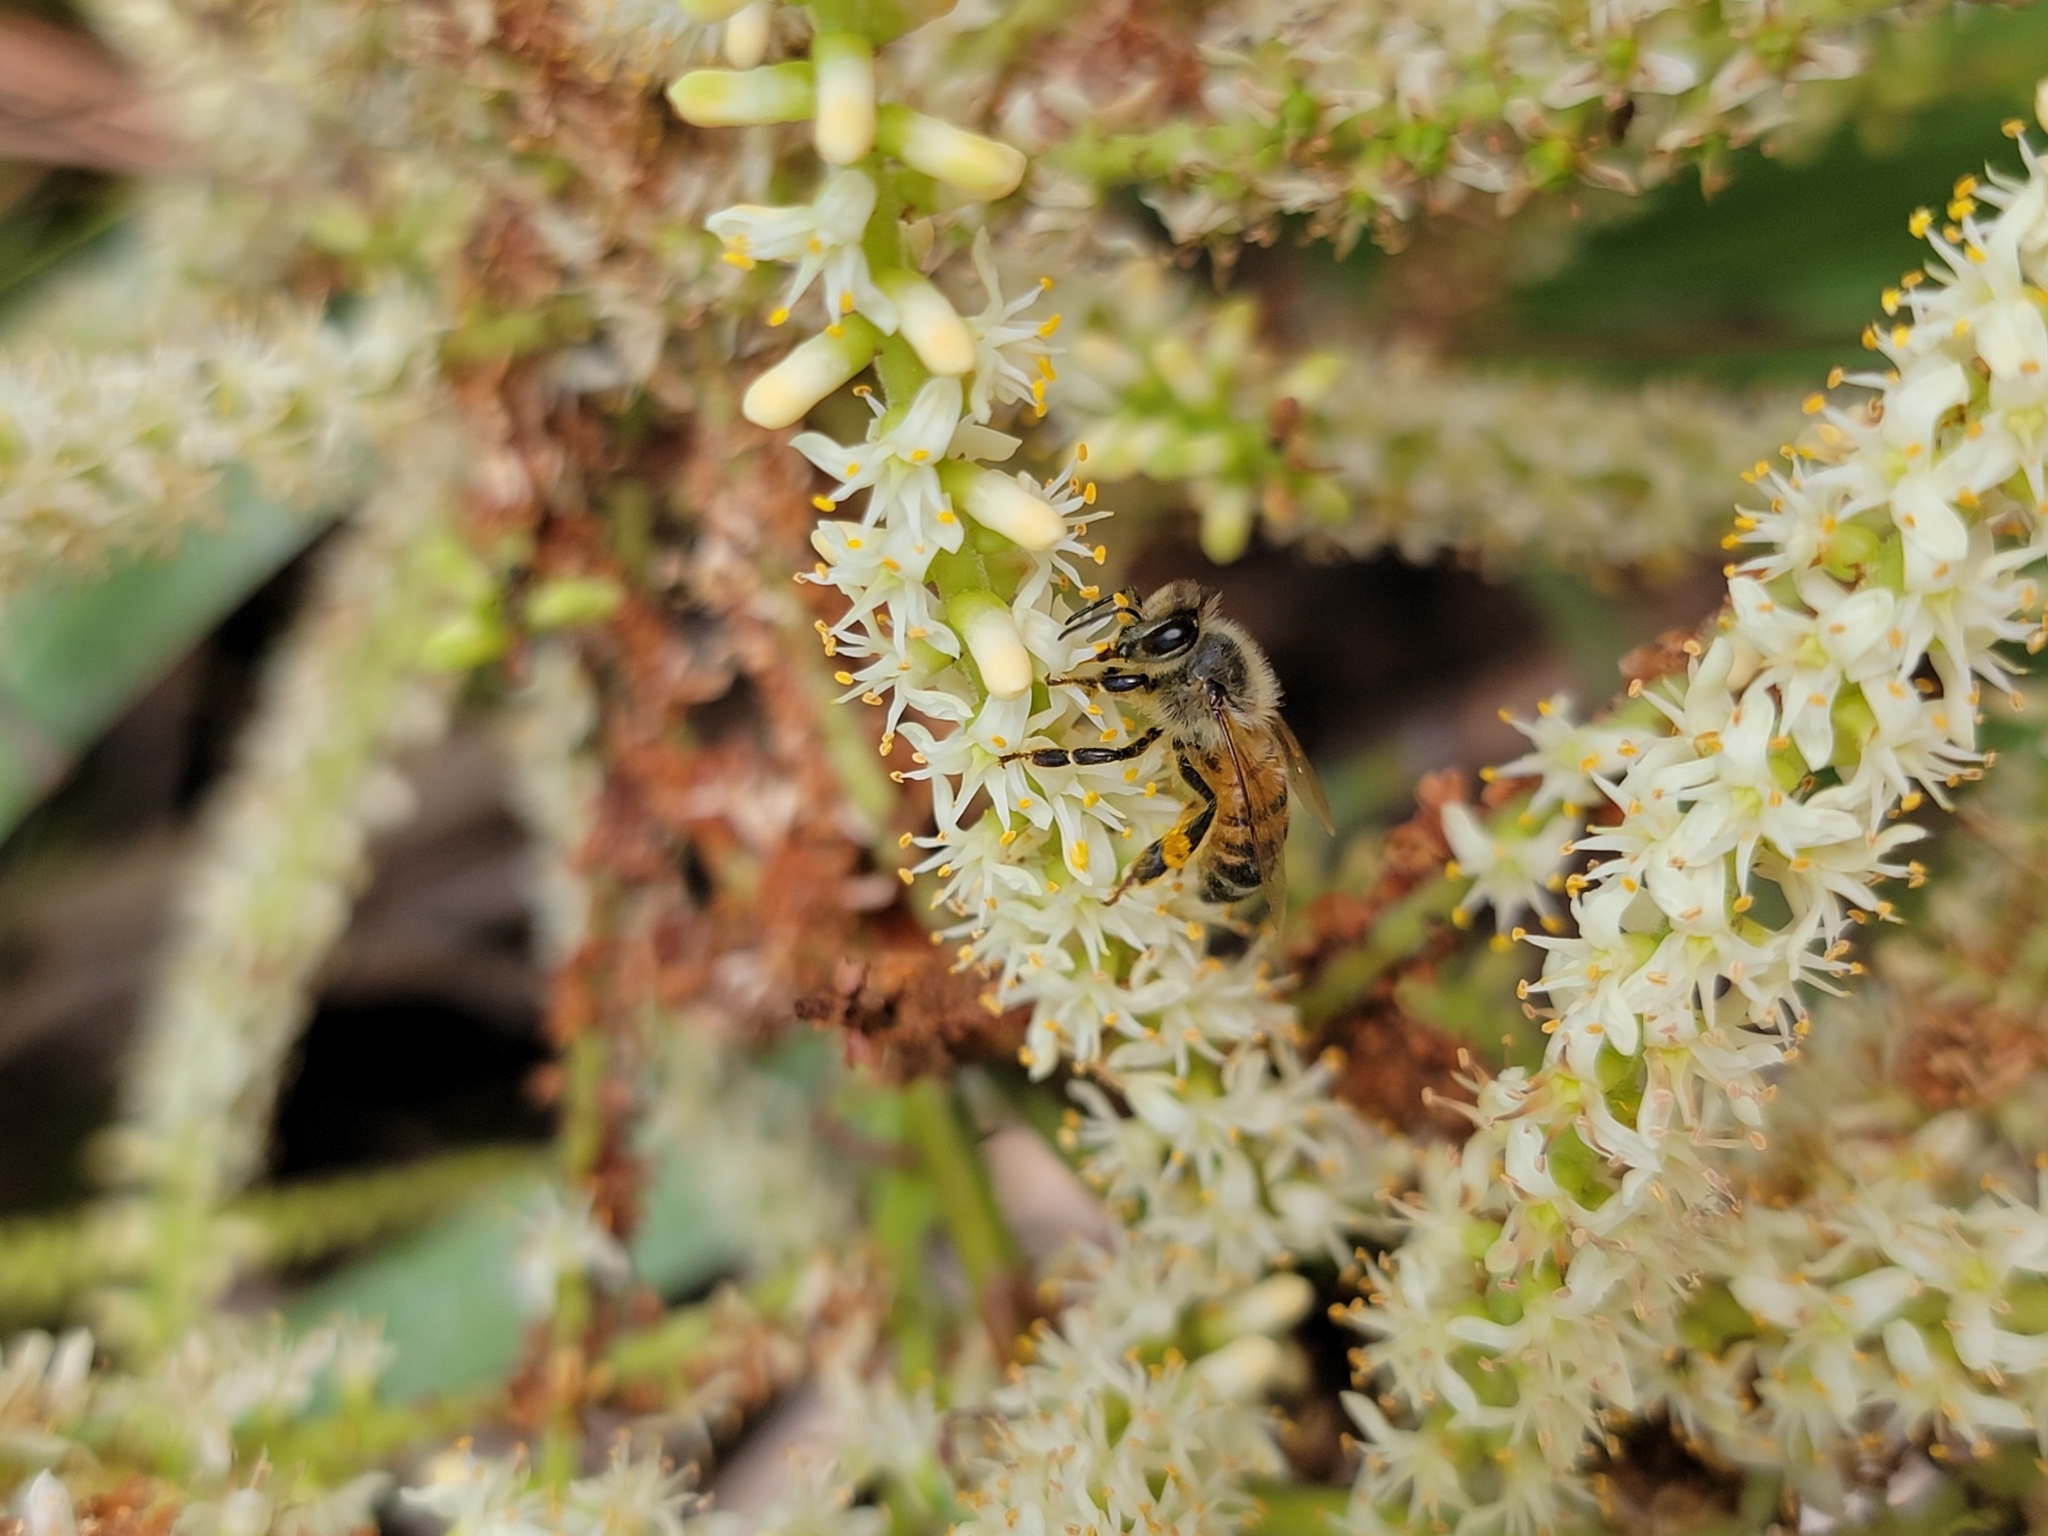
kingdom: Animalia
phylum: Arthropoda
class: Insecta
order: Hymenoptera
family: Apidae
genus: Apis
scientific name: Apis mellifera
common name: Honey bee
